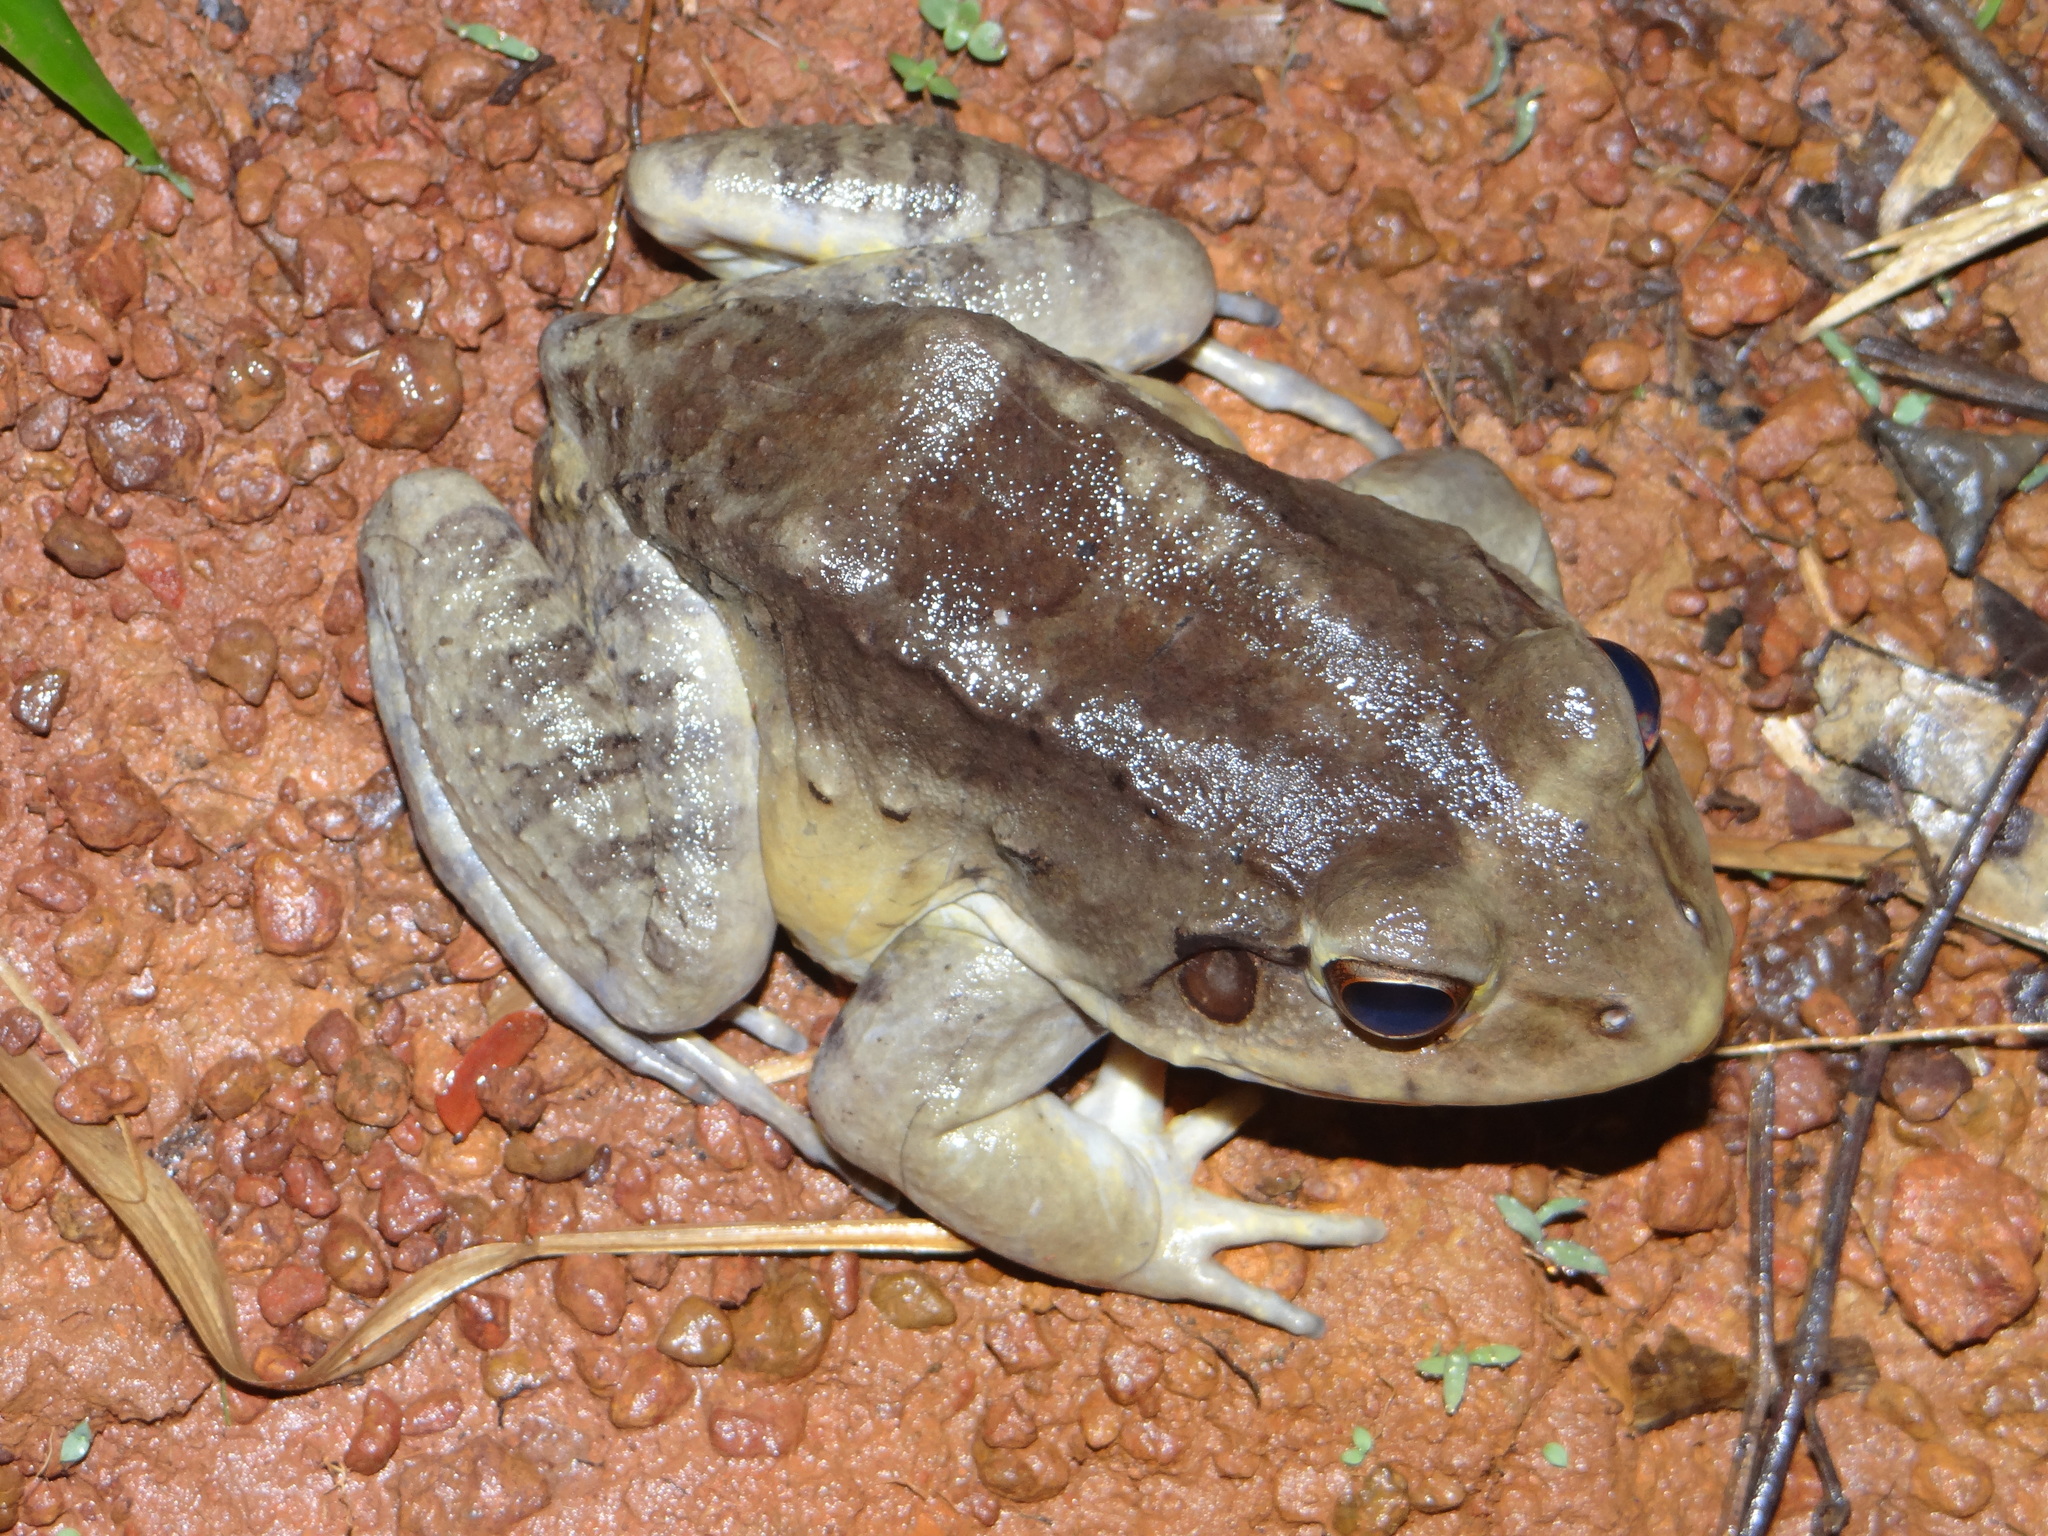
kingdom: Animalia
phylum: Chordata
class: Amphibia
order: Anura
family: Leptodactylidae
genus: Leptodactylus
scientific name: Leptodactylus knudseni
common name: Knudsen's frog
